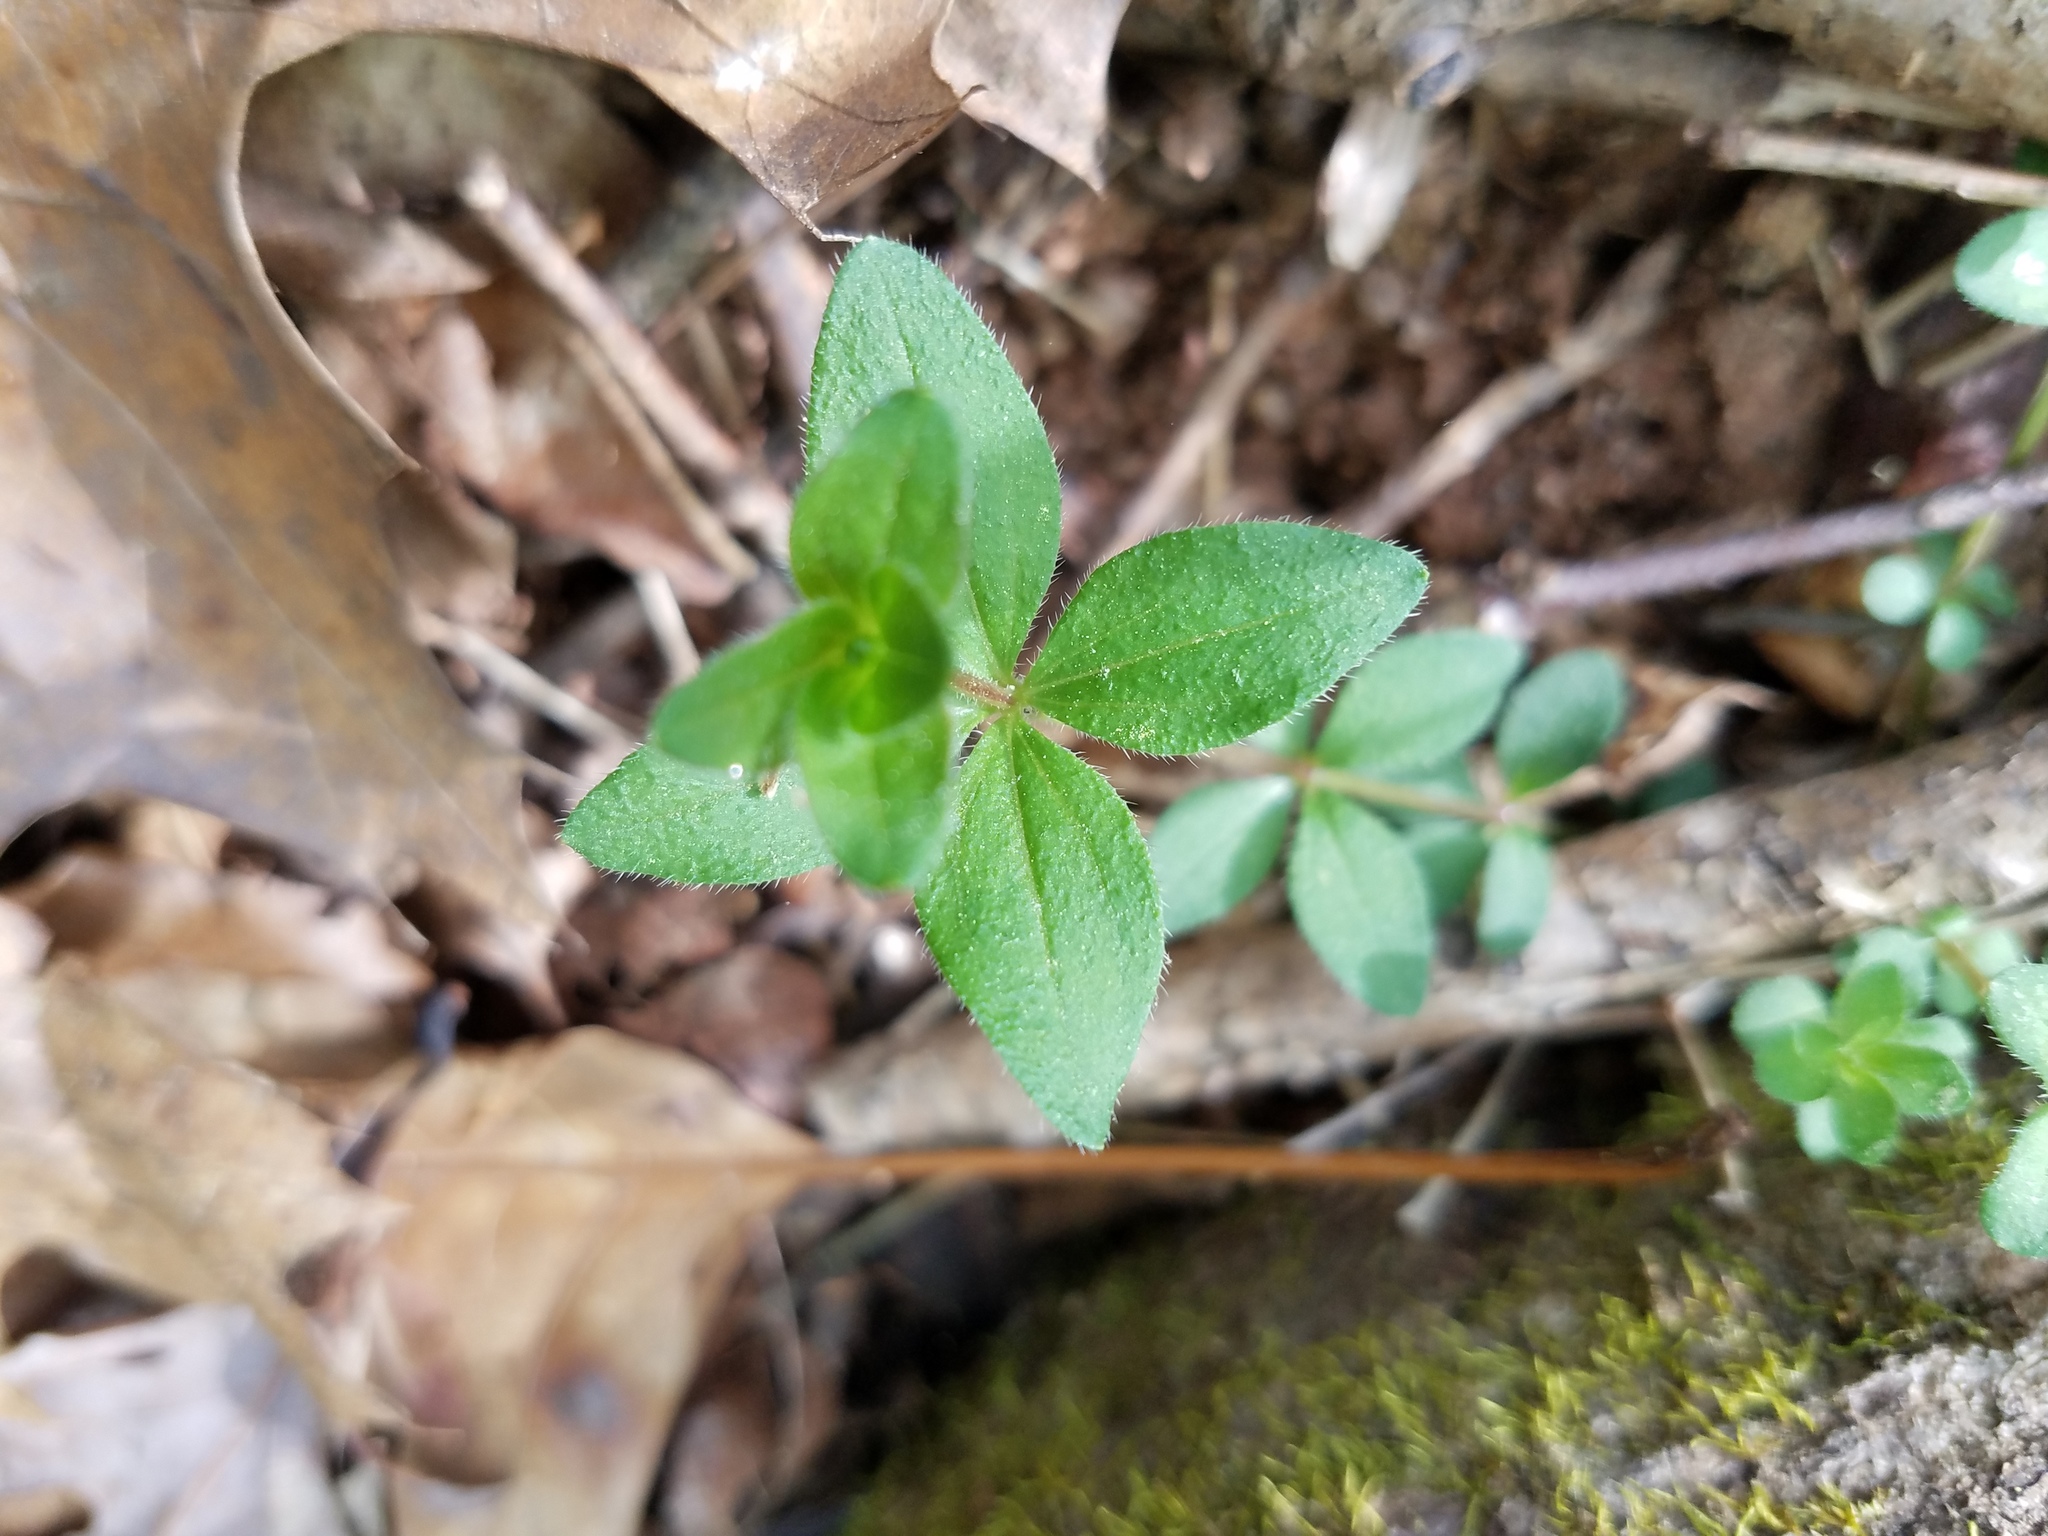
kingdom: Plantae
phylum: Tracheophyta
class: Magnoliopsida
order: Gentianales
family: Rubiaceae
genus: Galium
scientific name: Galium pilosum
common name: Hairy bedstraw
